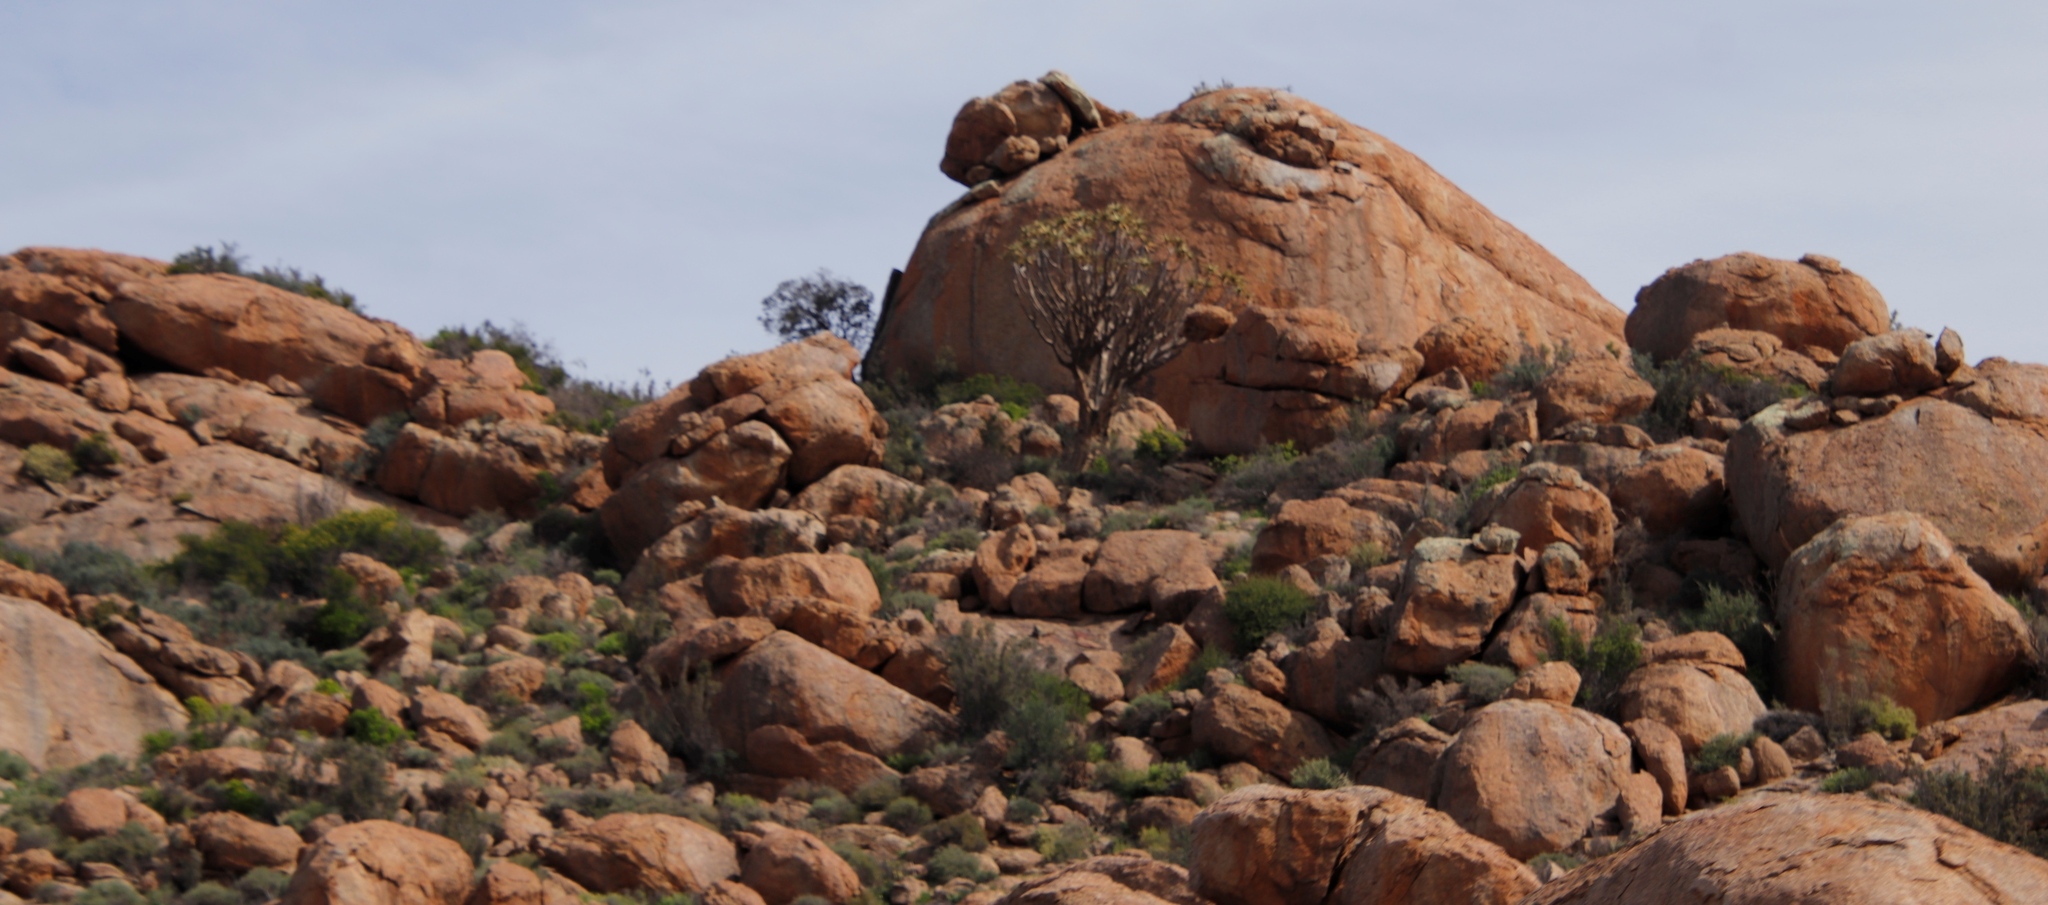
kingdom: Plantae
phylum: Tracheophyta
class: Liliopsida
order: Asparagales
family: Asphodelaceae
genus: Aloidendron
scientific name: Aloidendron dichotomum
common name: Quiver tree
